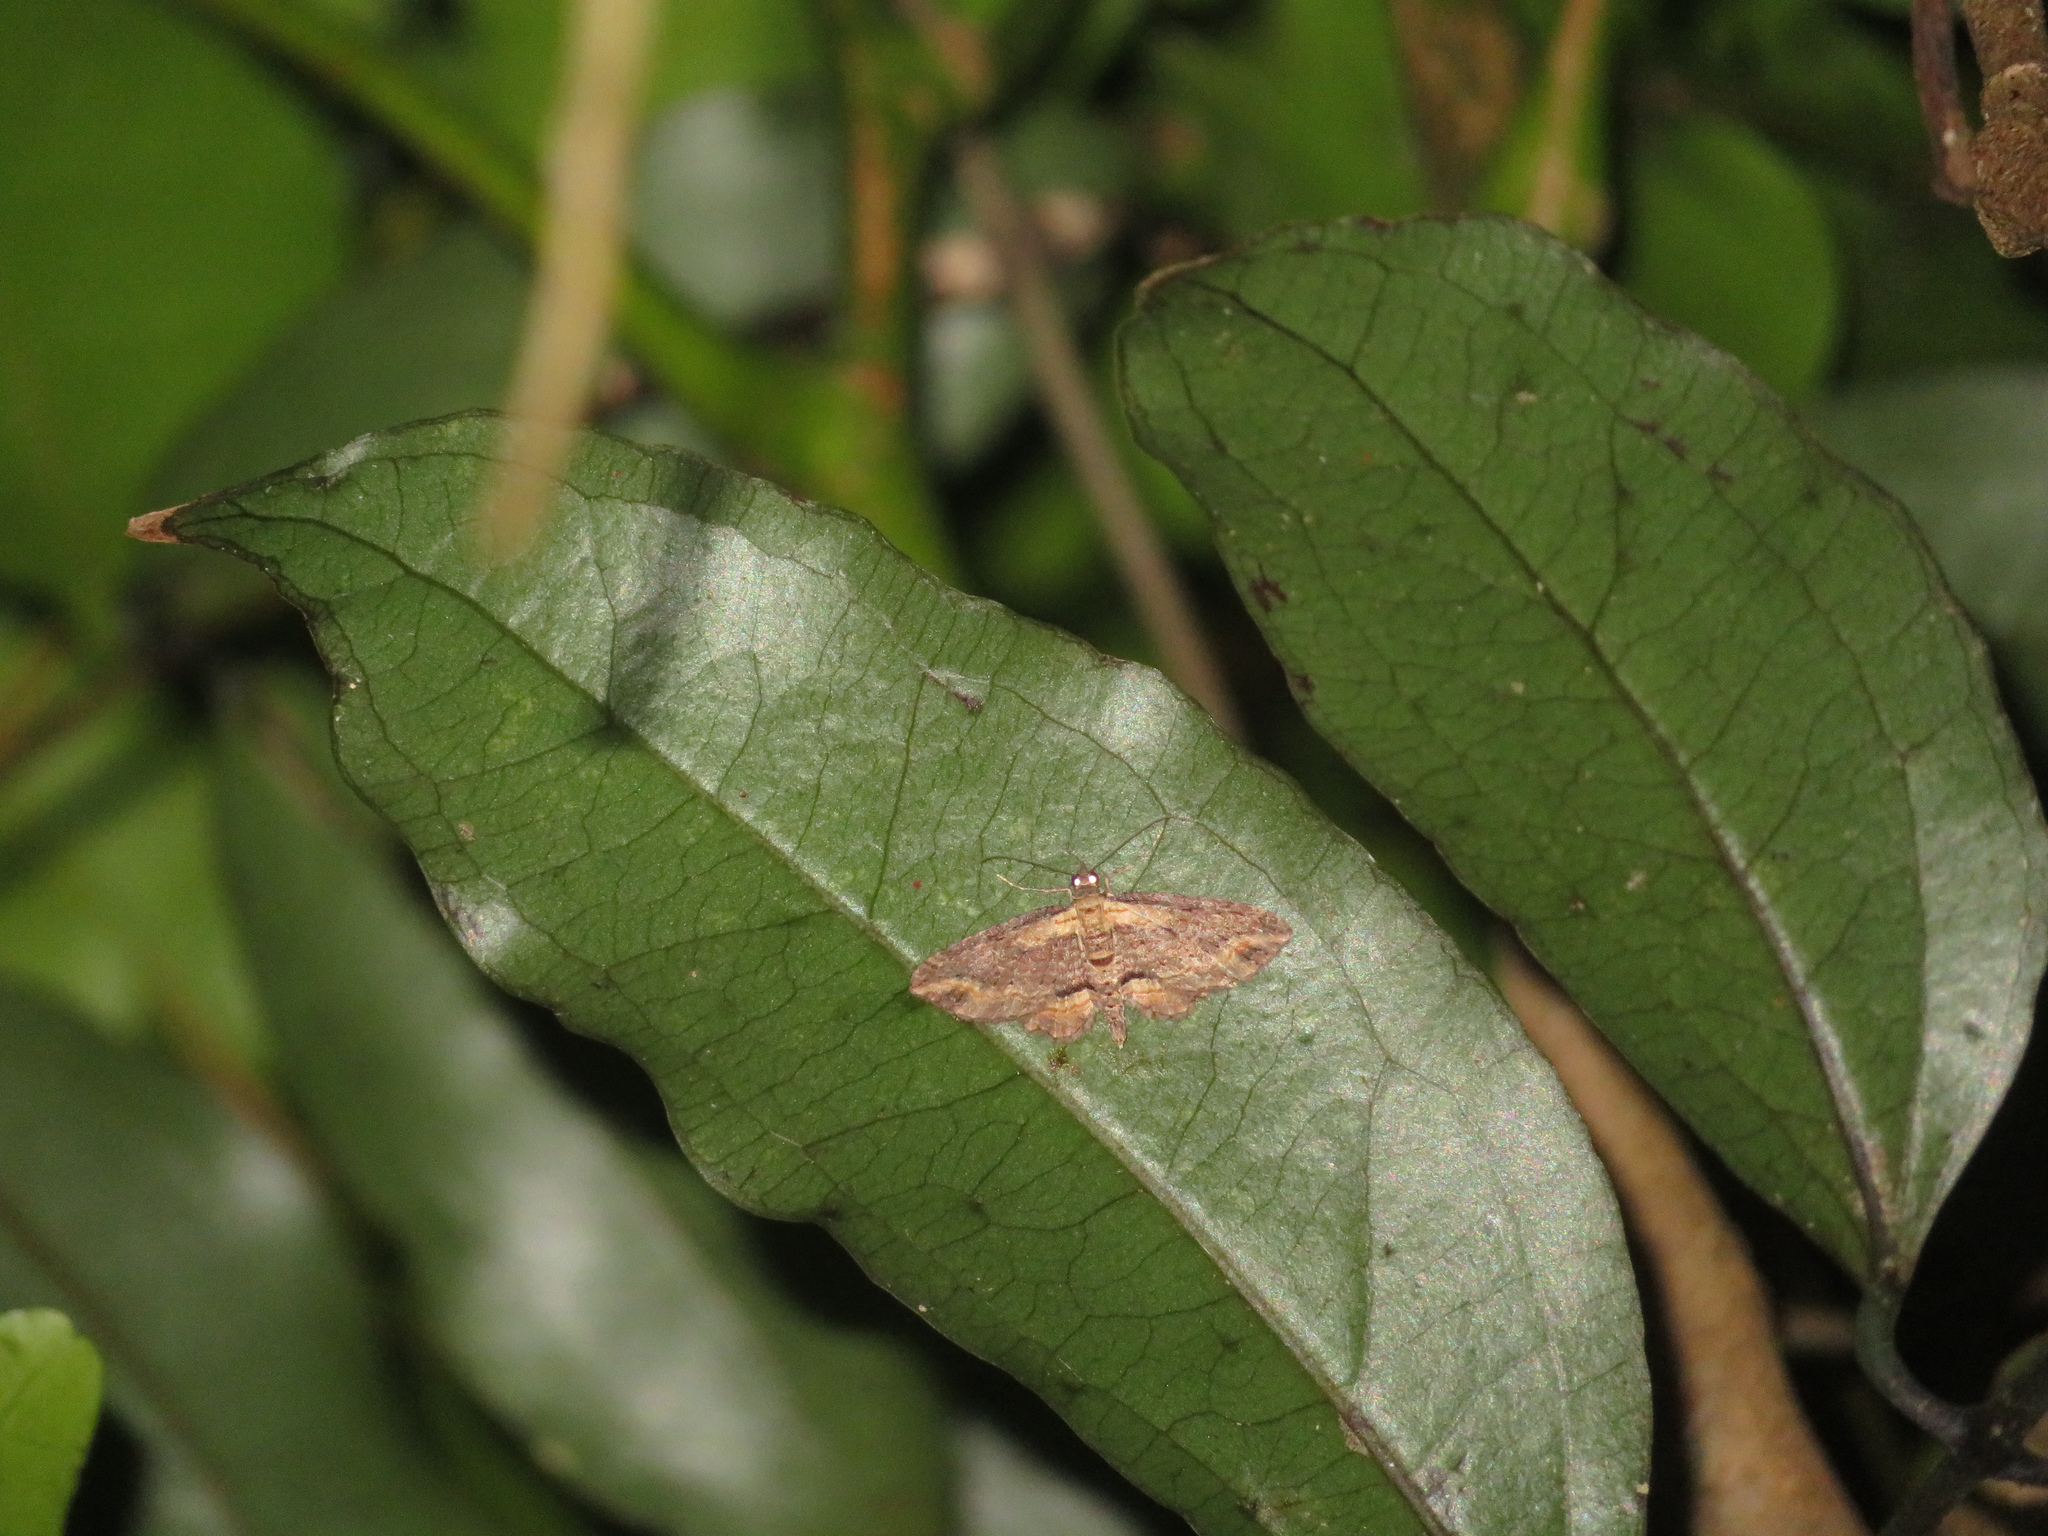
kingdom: Animalia
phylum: Arthropoda
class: Insecta
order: Lepidoptera
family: Geometridae
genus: Chloroclystis
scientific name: Chloroclystis filata
